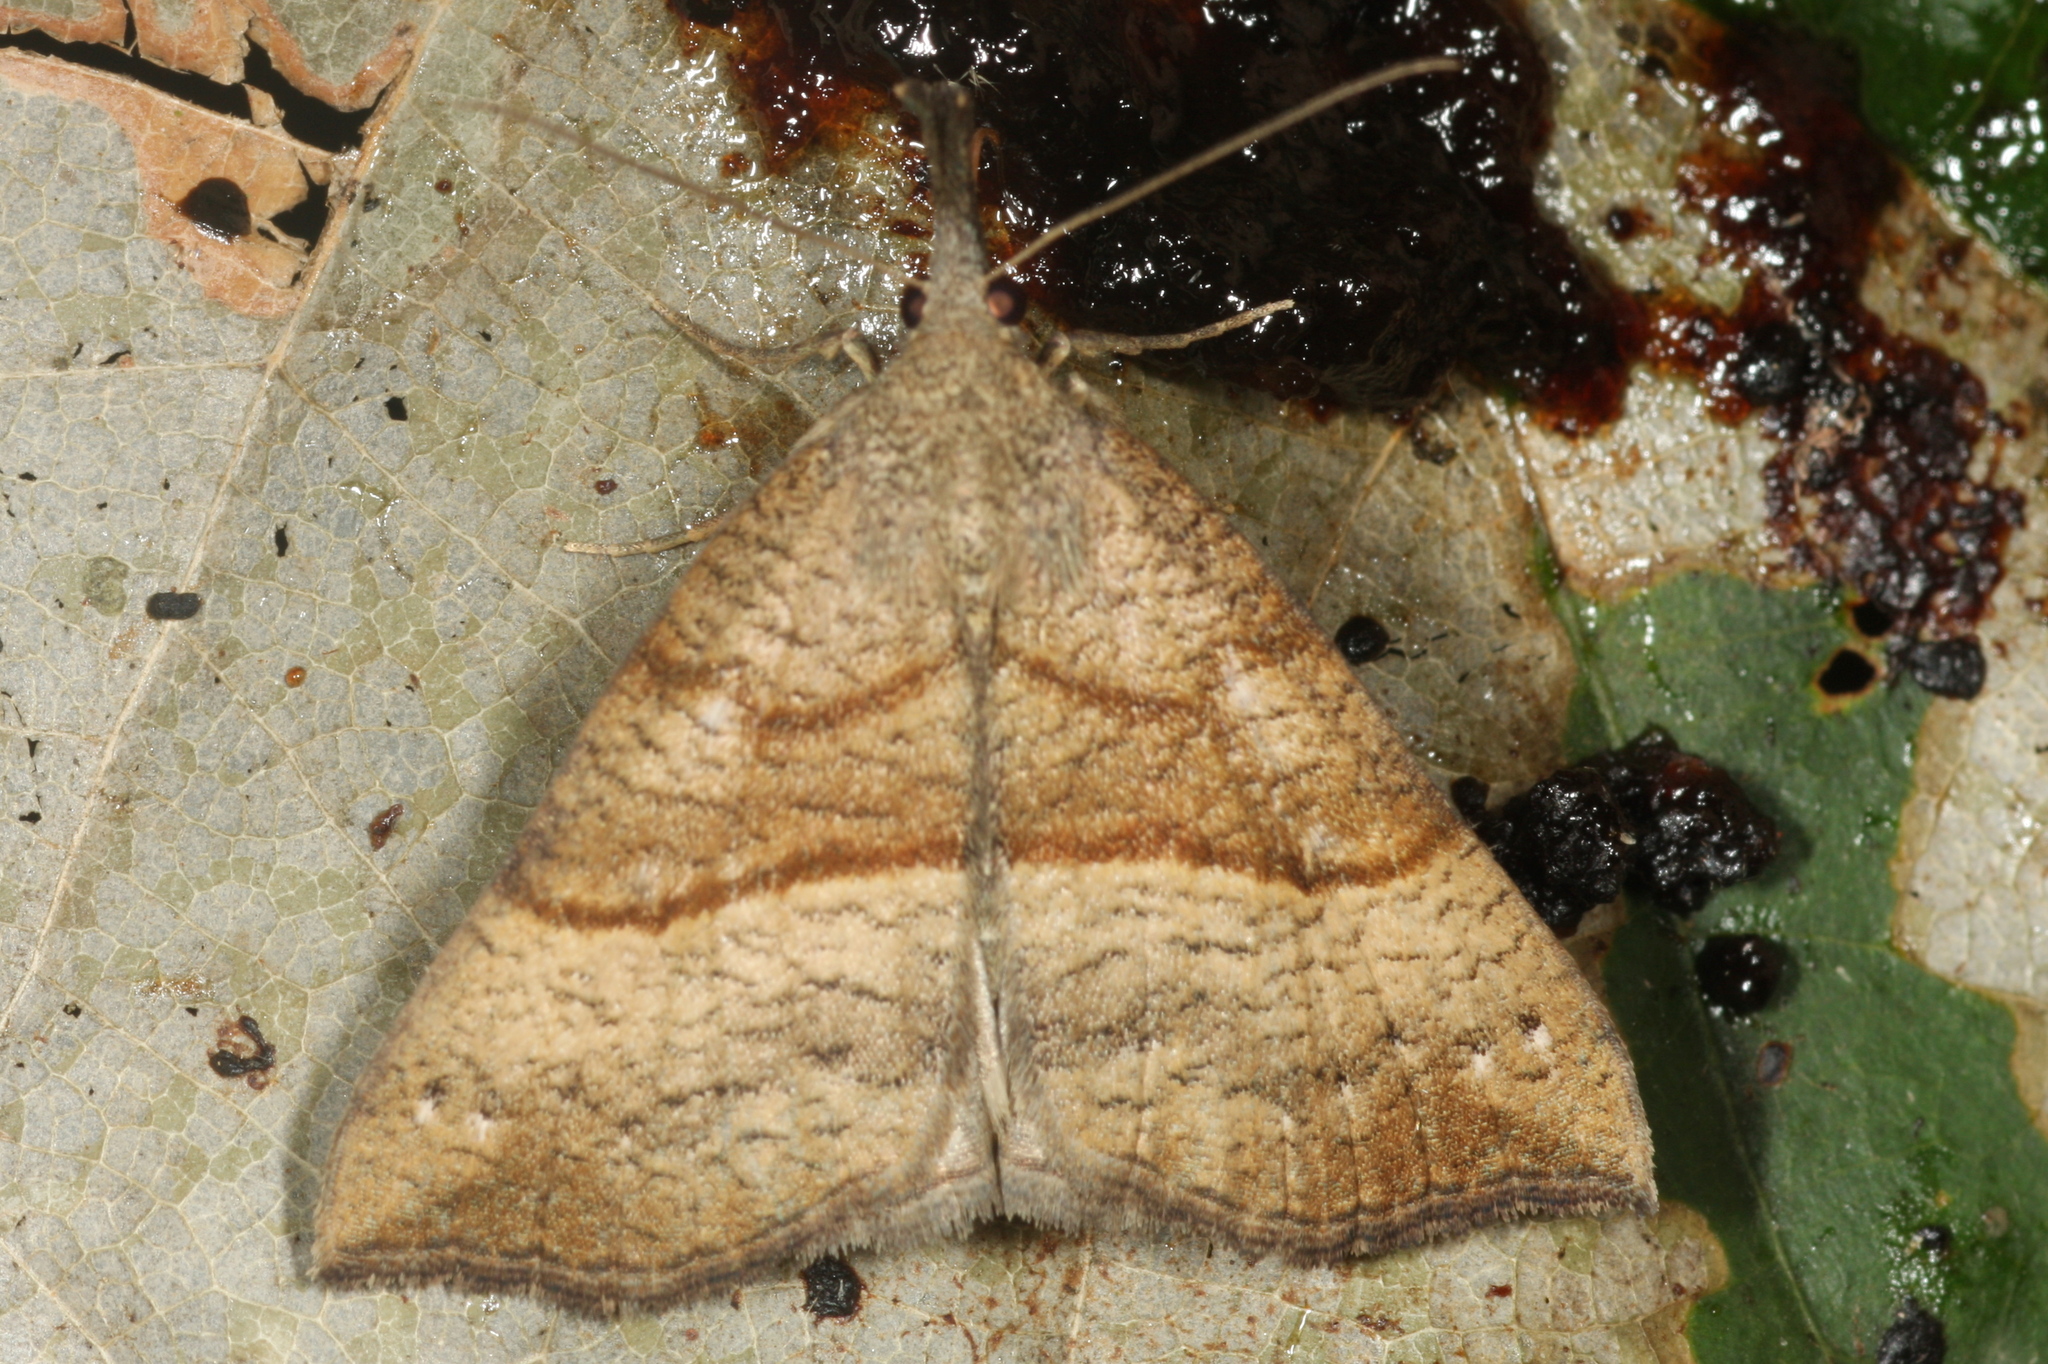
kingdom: Animalia
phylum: Arthropoda
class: Insecta
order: Lepidoptera
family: Erebidae
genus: Hypena
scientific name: Hypena proboscidalis
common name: Snout
